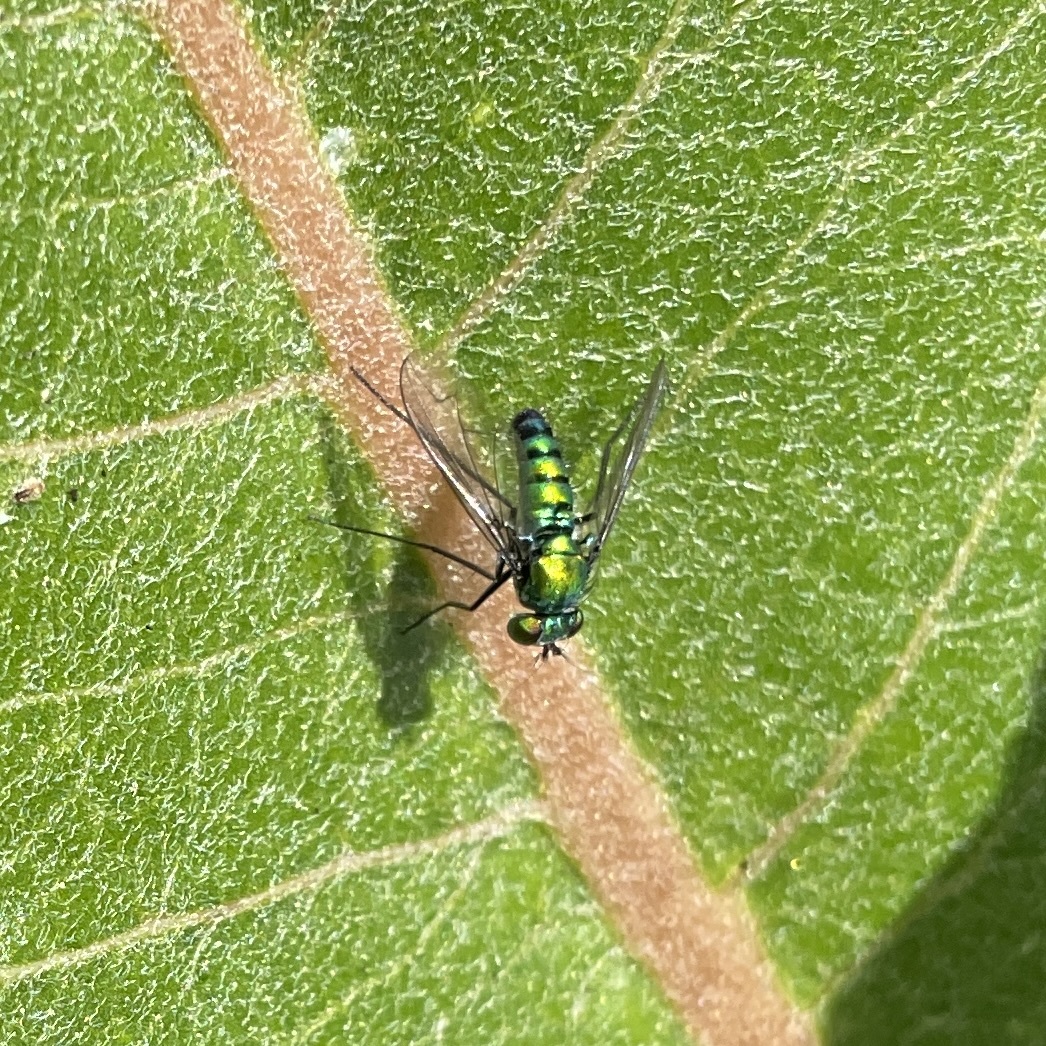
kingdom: Animalia
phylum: Arthropoda
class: Insecta
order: Diptera
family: Dolichopodidae
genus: Condylostylus
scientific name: Condylostylus occidentalis
